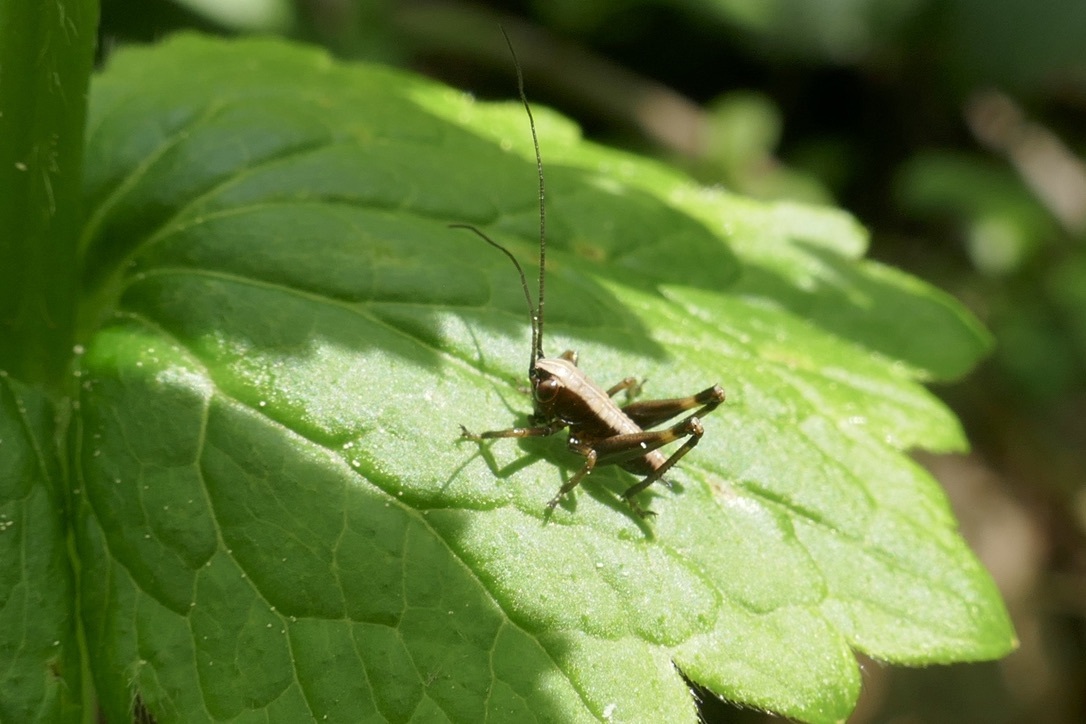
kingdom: Animalia
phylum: Arthropoda
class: Insecta
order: Orthoptera
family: Tettigoniidae
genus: Pholidoptera
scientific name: Pholidoptera griseoaptera
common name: Dark bush-cricket
